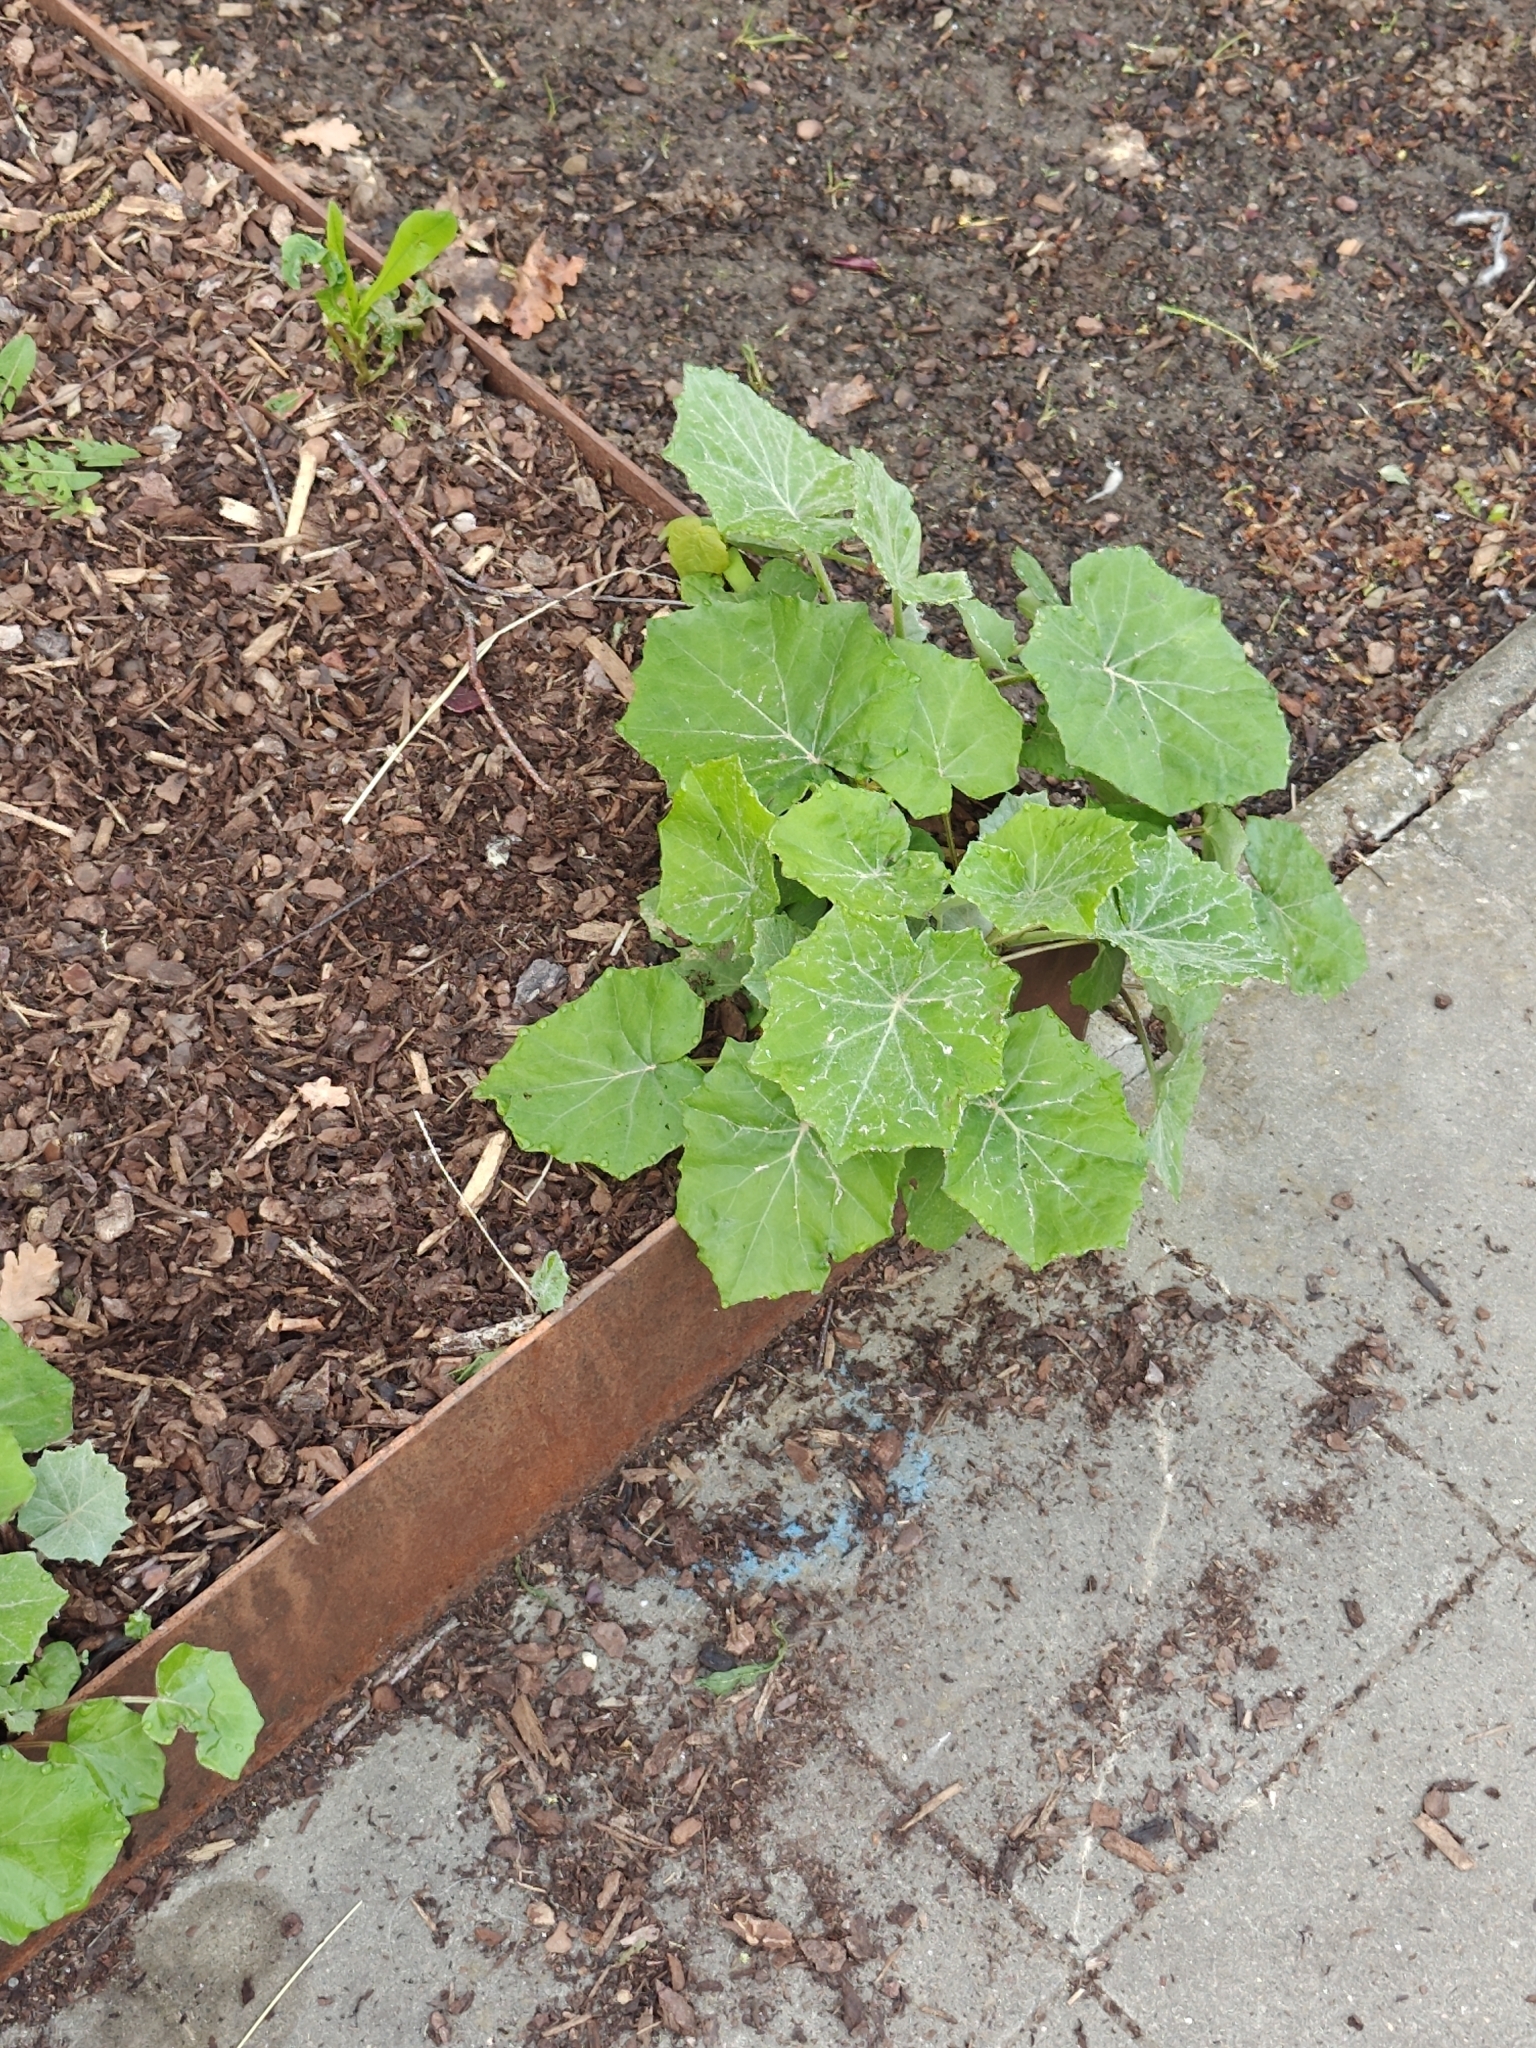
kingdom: Plantae
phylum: Tracheophyta
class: Magnoliopsida
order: Asterales
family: Asteraceae
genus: Tussilago
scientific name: Tussilago farfara
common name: Coltsfoot
